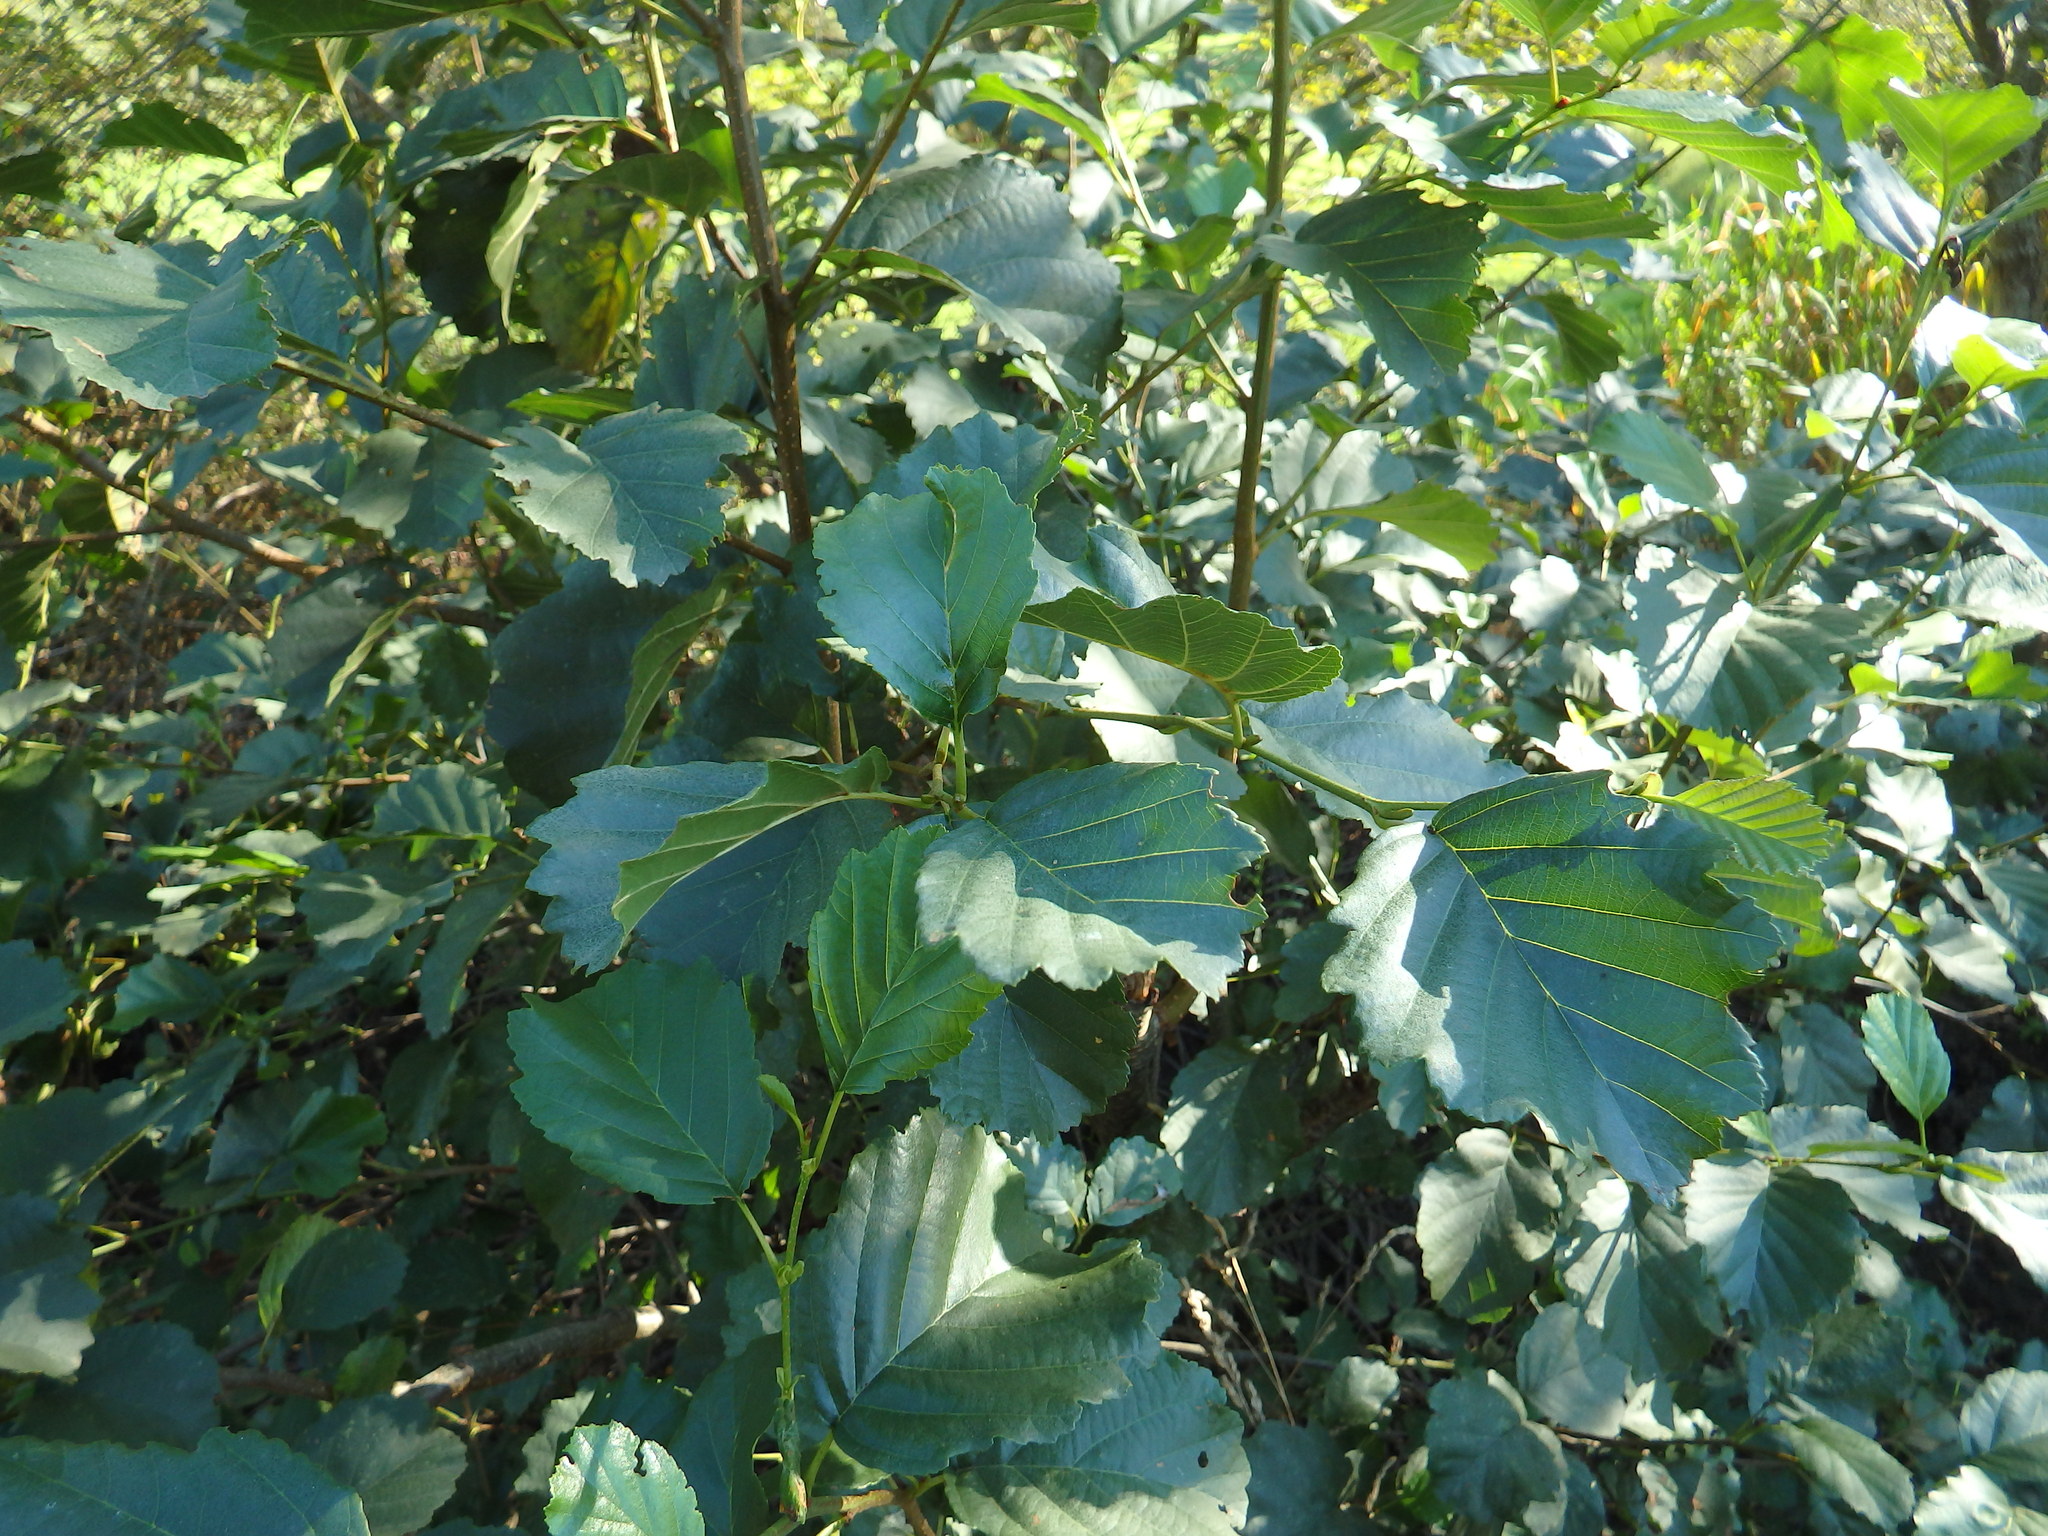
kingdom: Plantae
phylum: Tracheophyta
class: Magnoliopsida
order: Fagales
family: Betulaceae
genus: Alnus
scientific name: Alnus lusitanica
